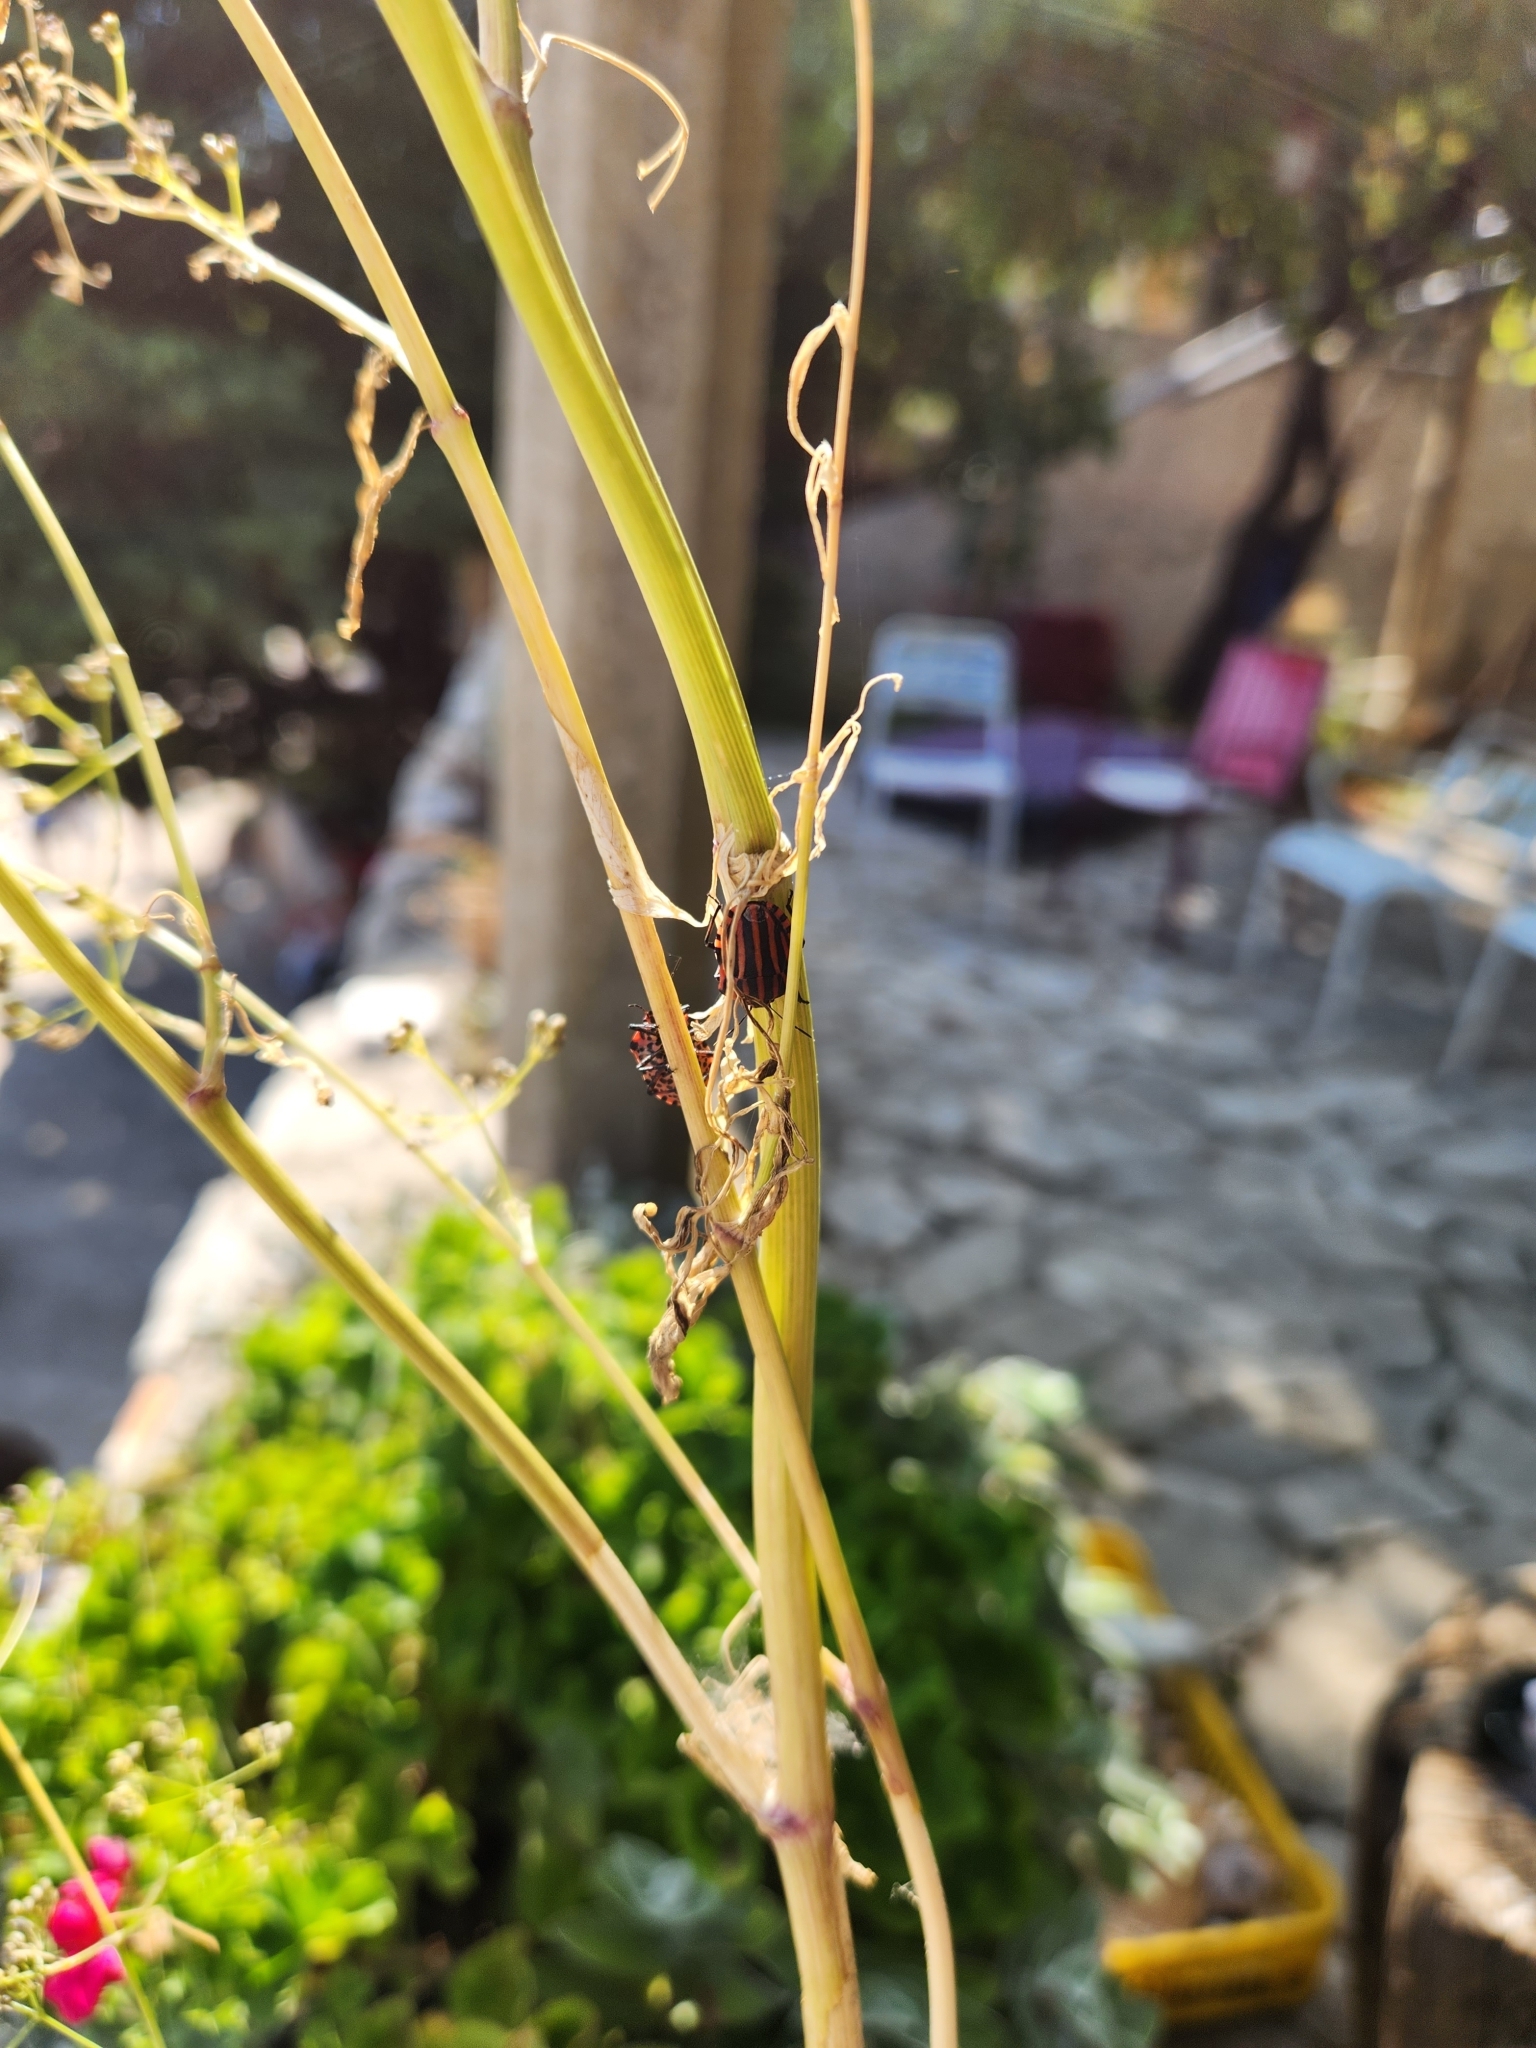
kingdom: Animalia
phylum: Arthropoda
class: Insecta
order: Hemiptera
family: Pentatomidae
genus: Graphosoma
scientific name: Graphosoma italicum
